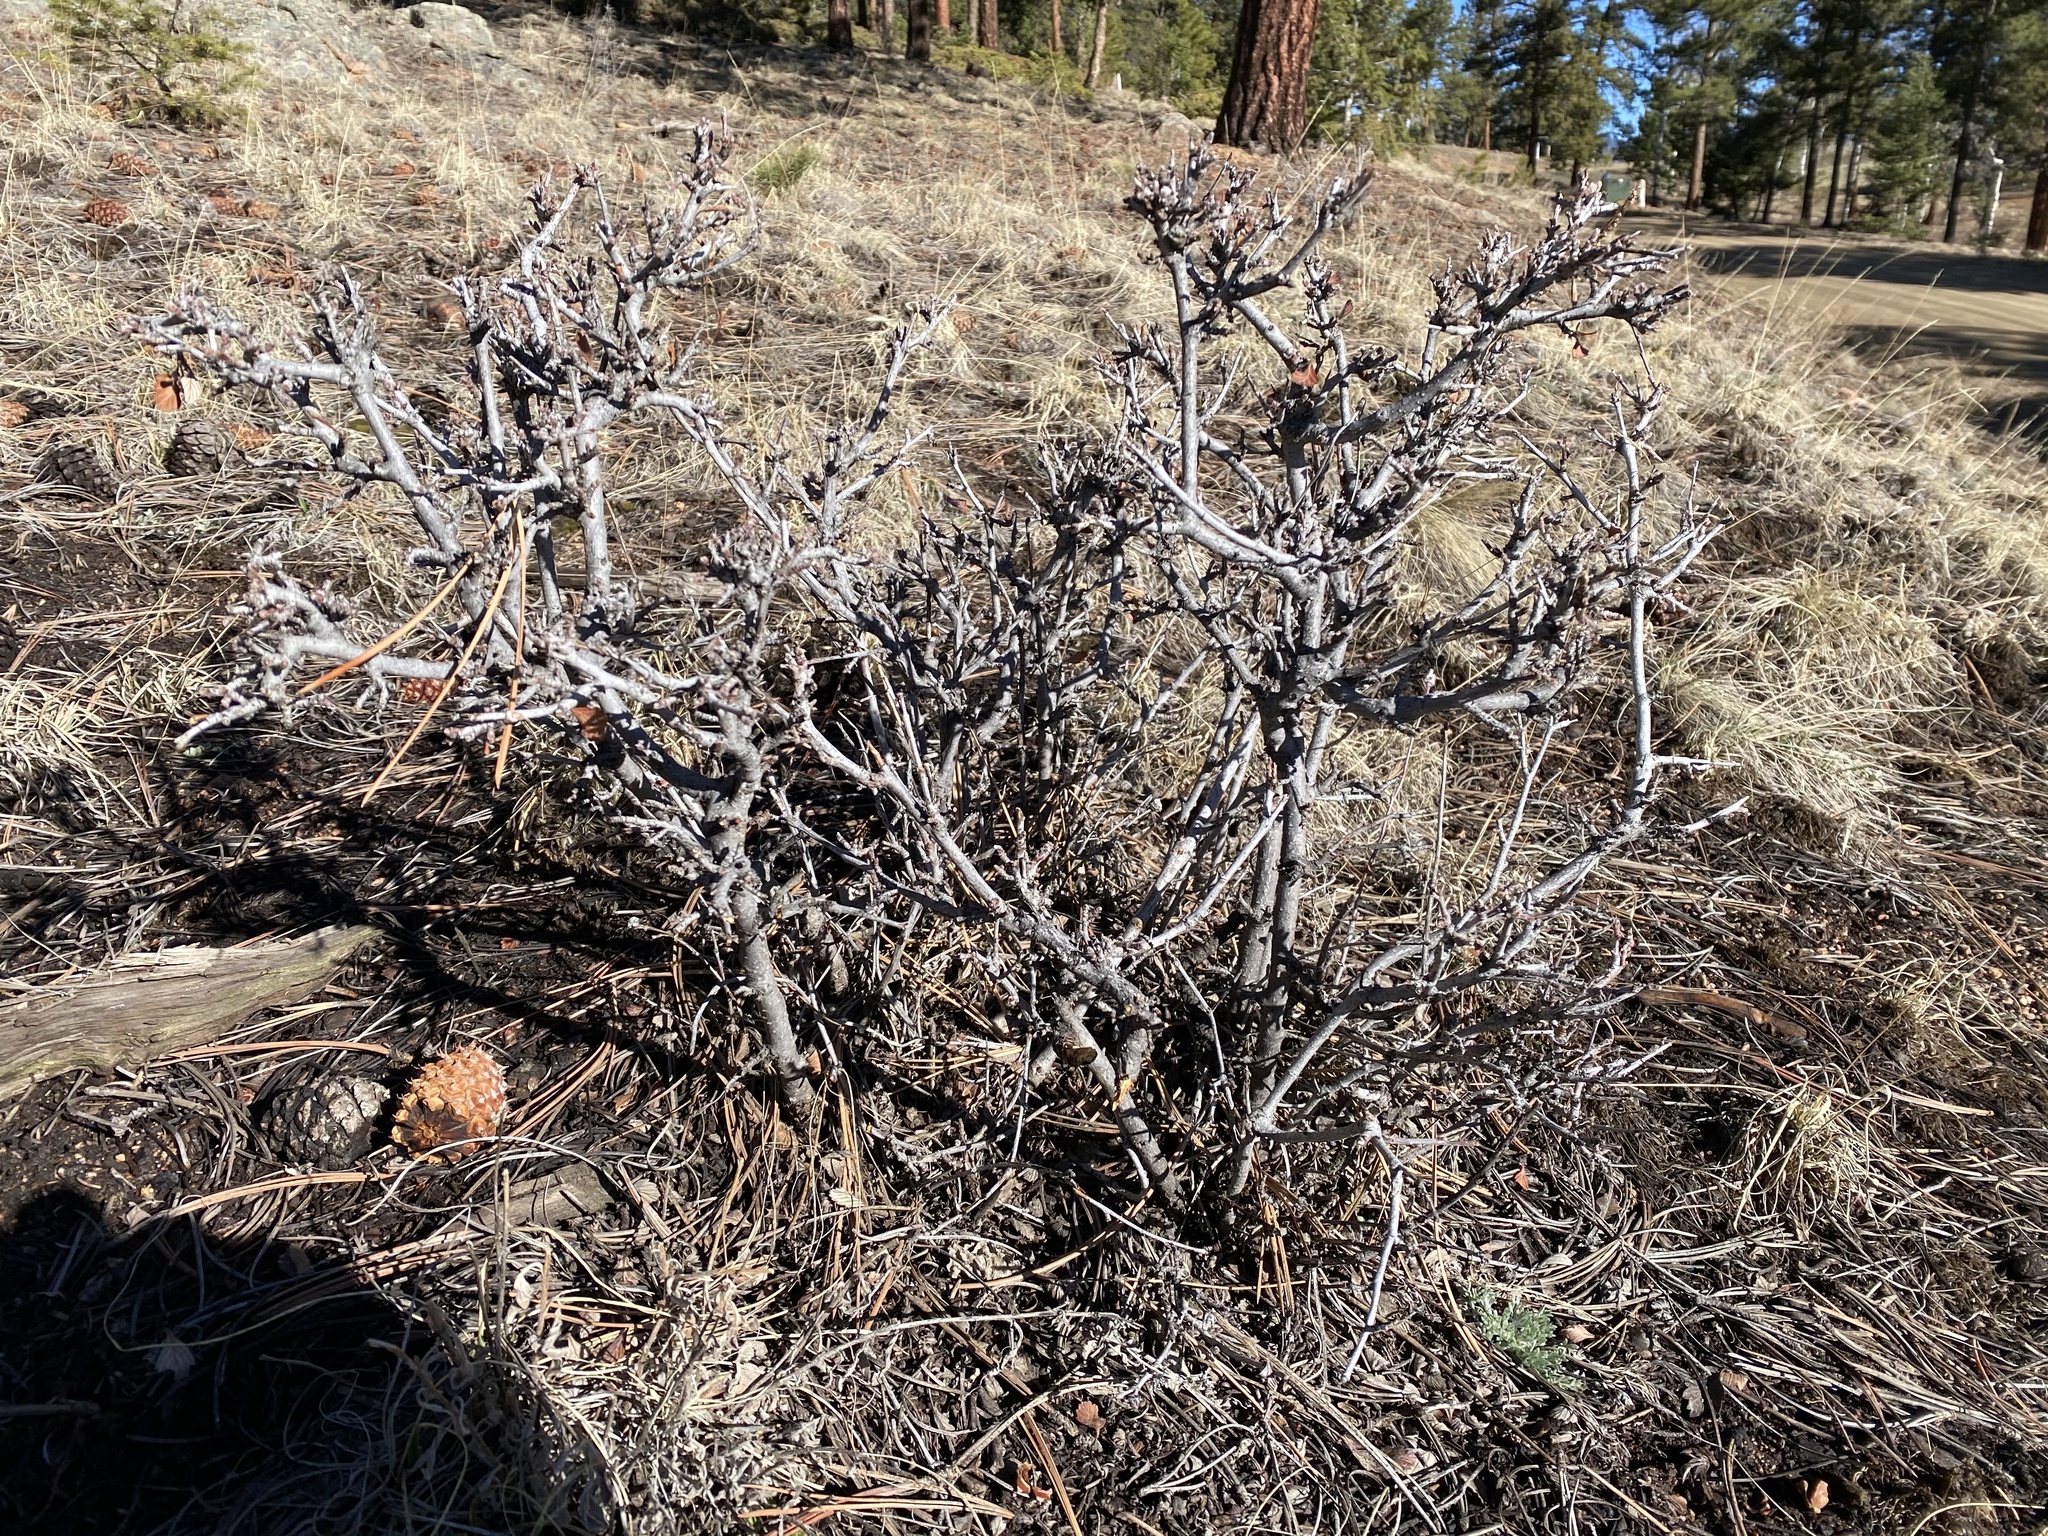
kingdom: Plantae
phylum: Tracheophyta
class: Magnoliopsida
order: Rosales
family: Rosaceae
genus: Cercocarpus
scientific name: Cercocarpus montanus
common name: Alder-leaf cercocarpus
